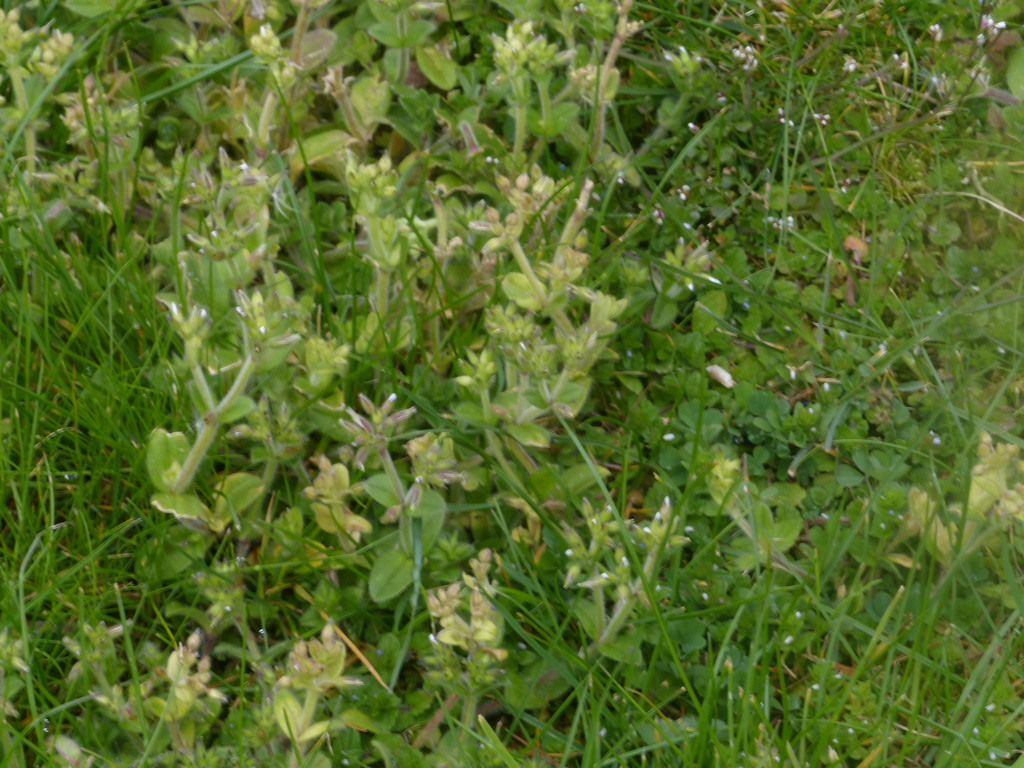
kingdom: Plantae
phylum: Tracheophyta
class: Magnoliopsida
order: Caryophyllales
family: Caryophyllaceae
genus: Cerastium
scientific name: Cerastium glomeratum
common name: Sticky chickweed
